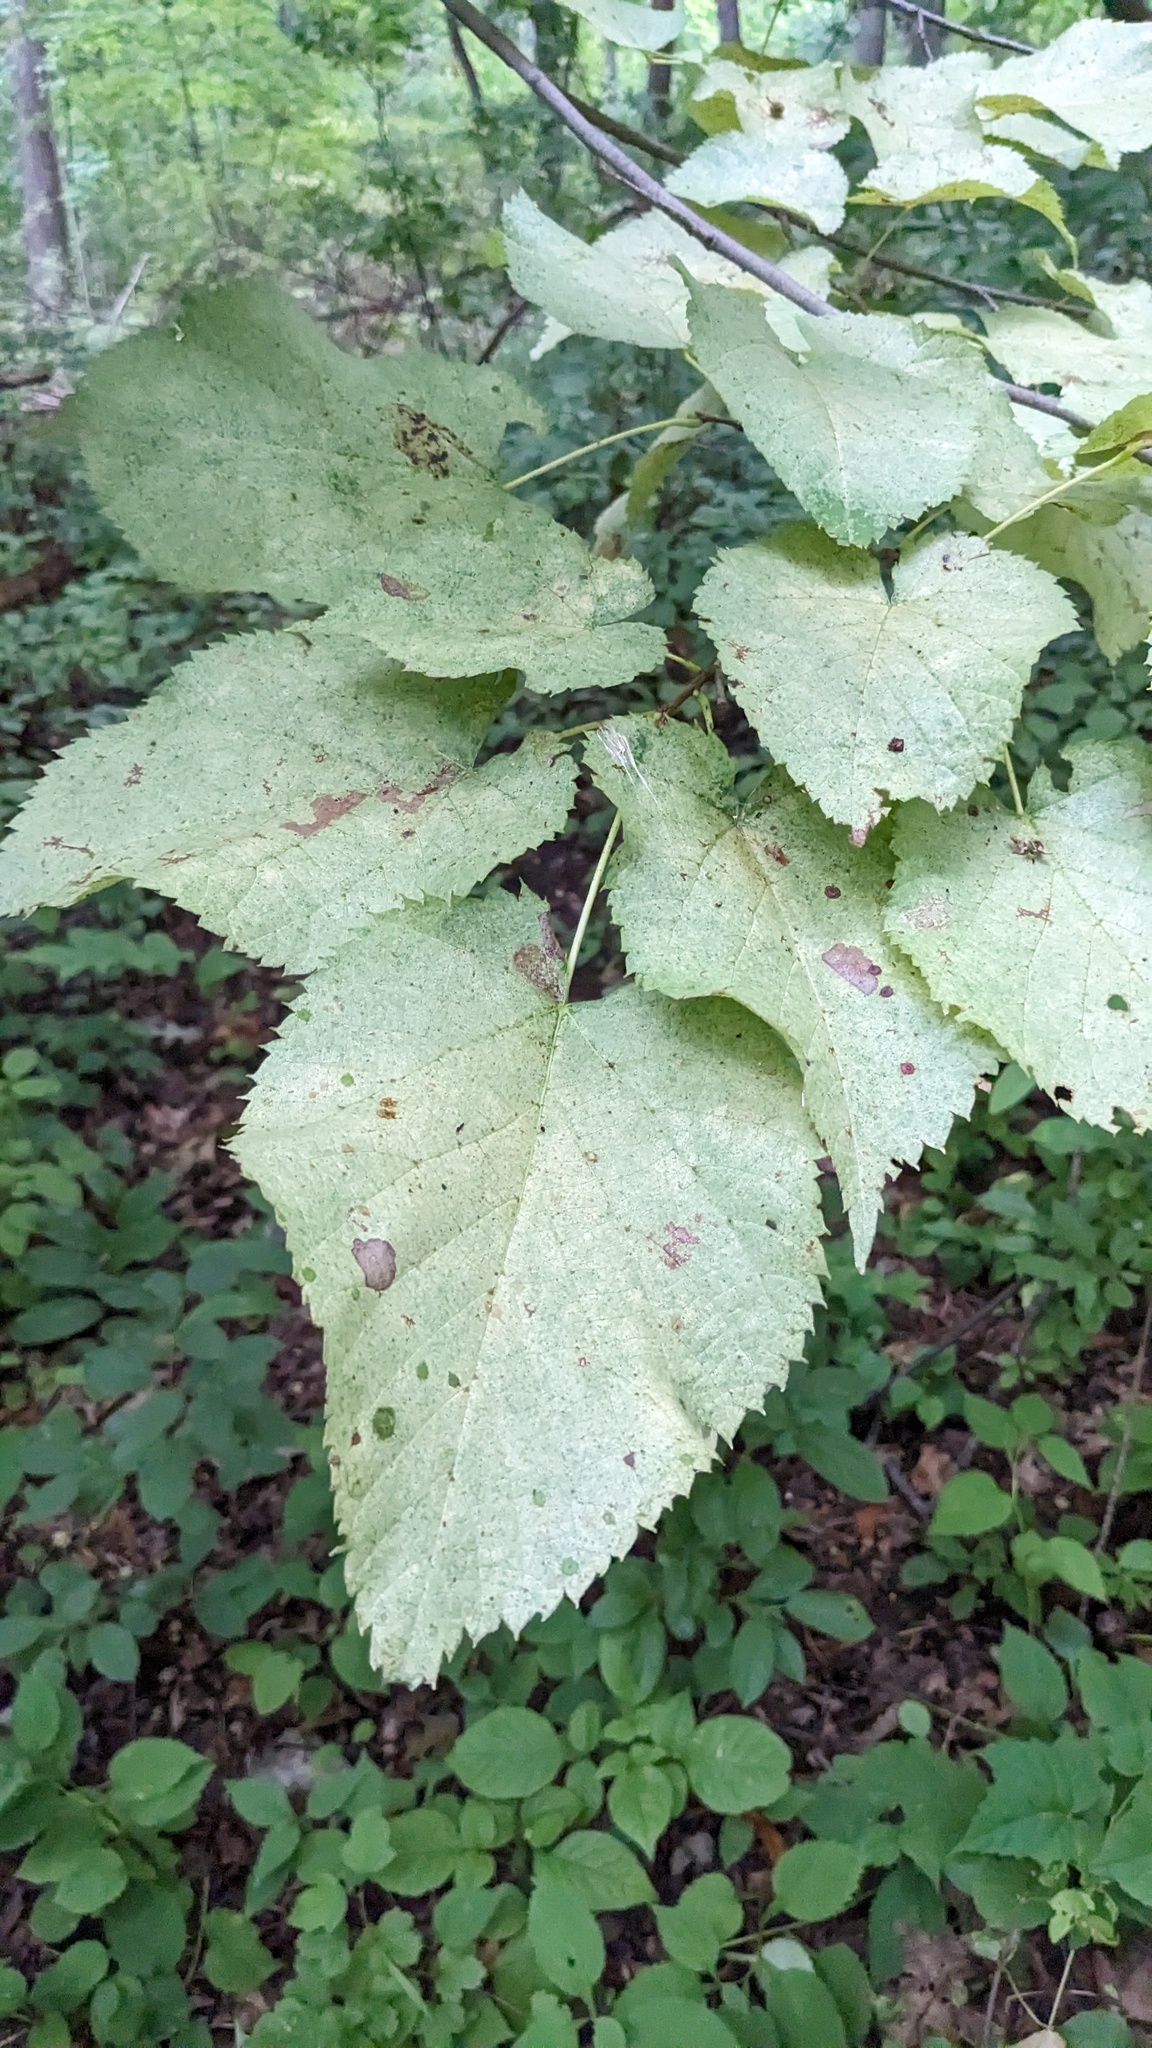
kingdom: Plantae
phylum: Tracheophyta
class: Magnoliopsida
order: Malvales
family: Malvaceae
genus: Tilia
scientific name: Tilia americana
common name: Basswood
